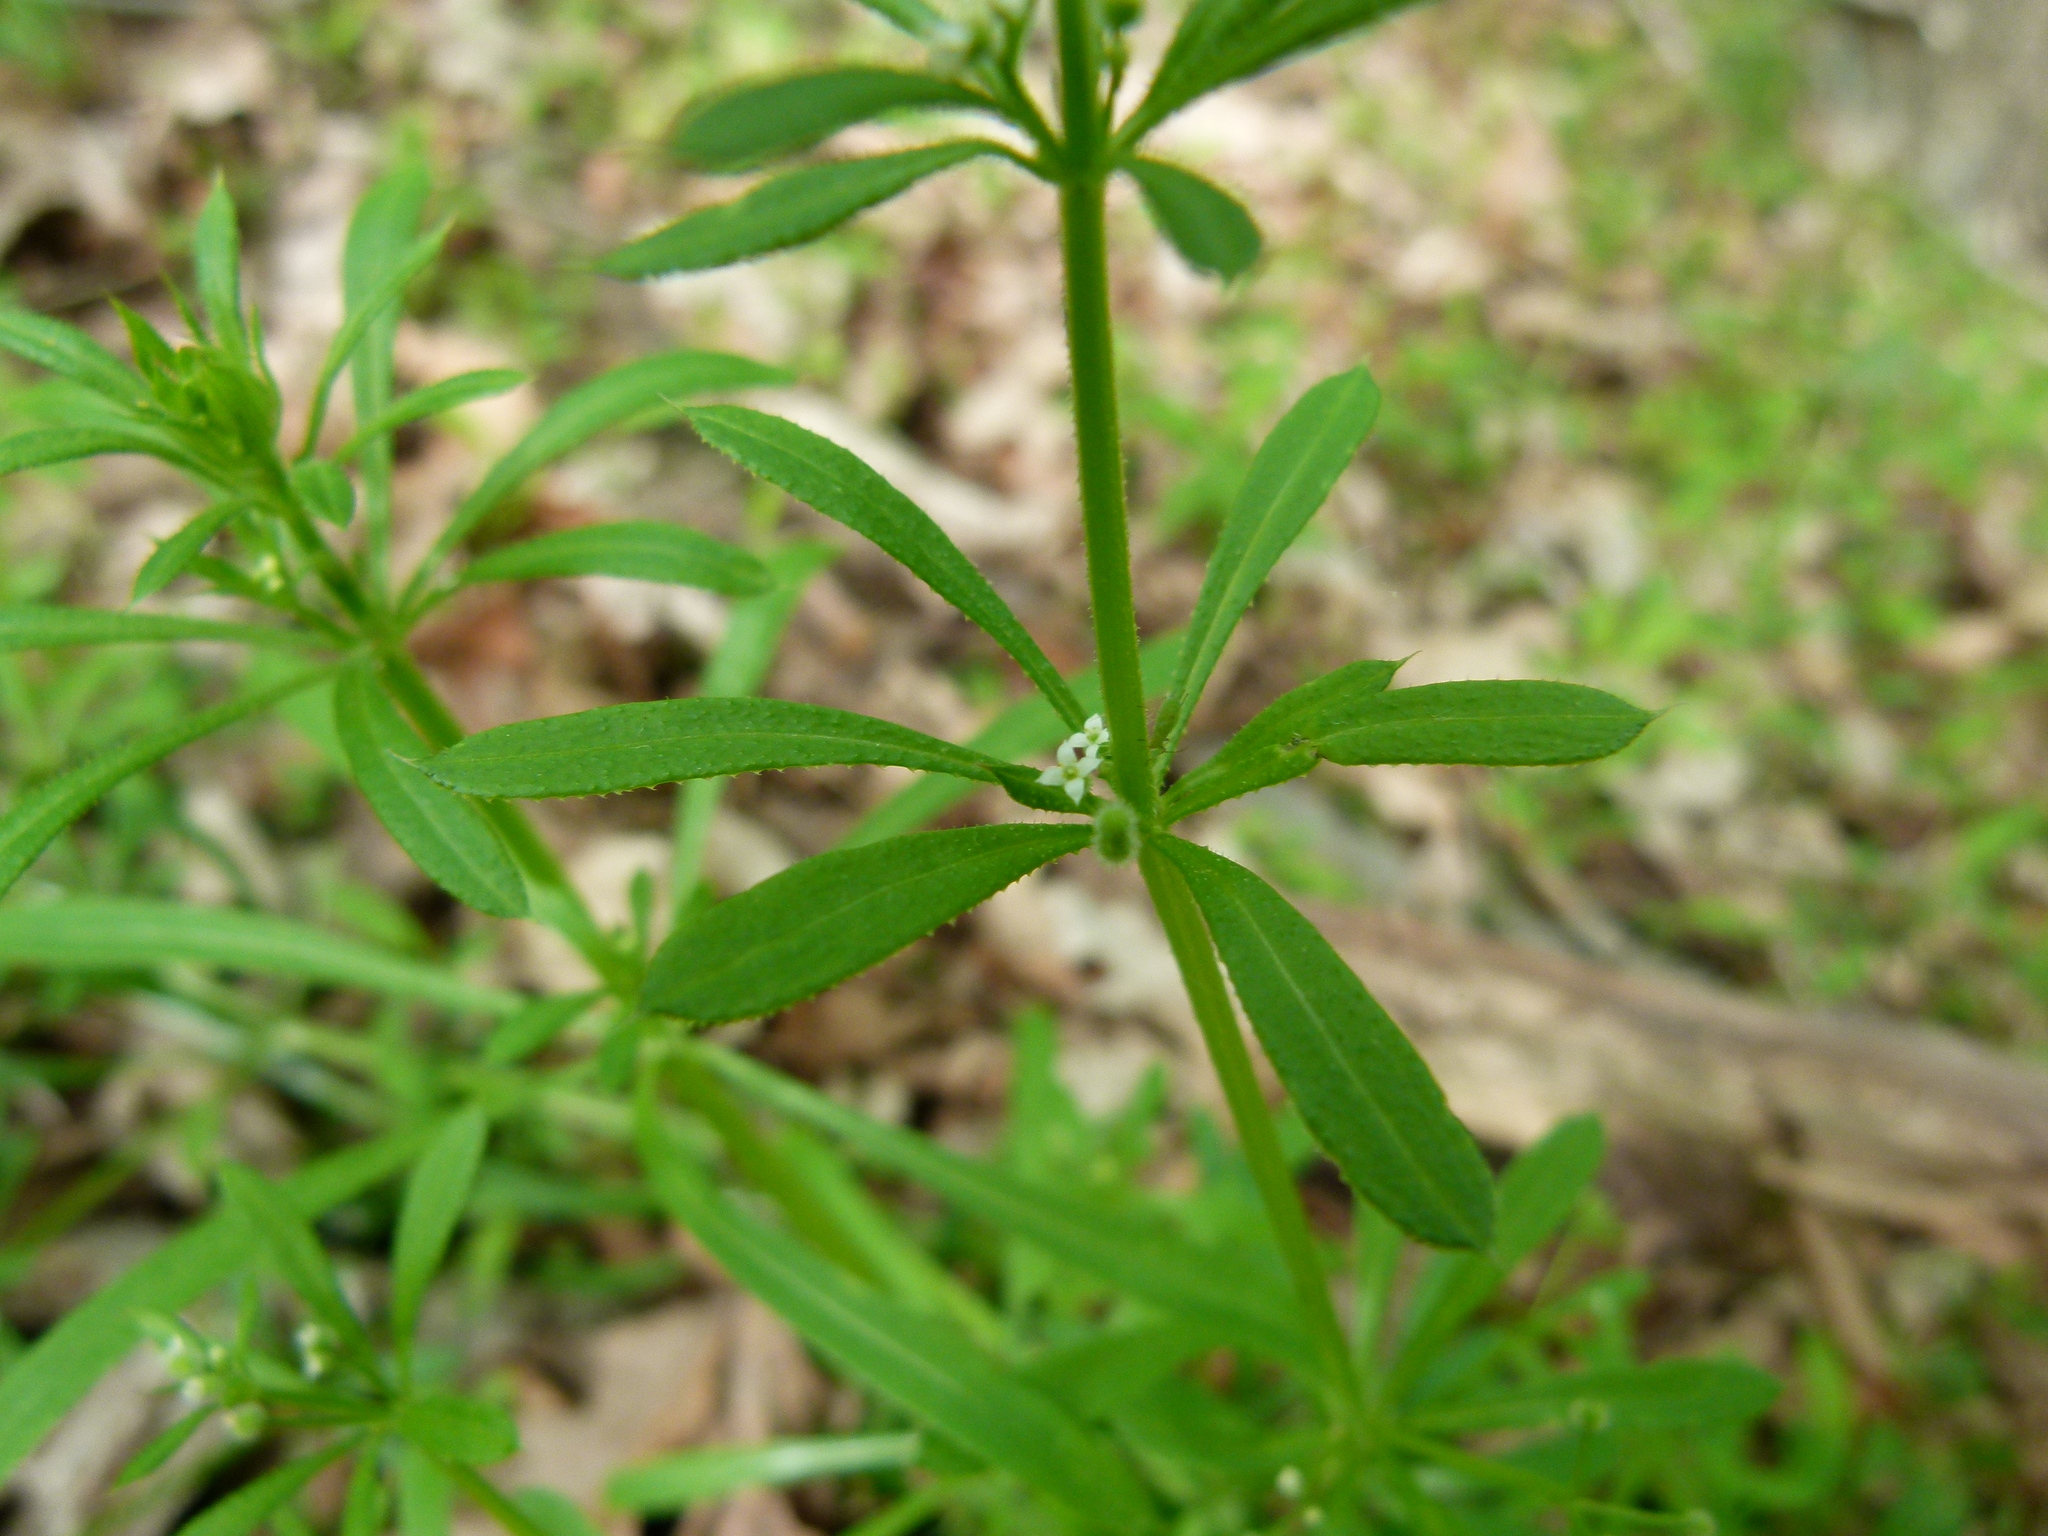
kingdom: Plantae
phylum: Tracheophyta
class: Magnoliopsida
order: Gentianales
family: Rubiaceae
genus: Galium
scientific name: Galium aparine
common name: Cleavers
